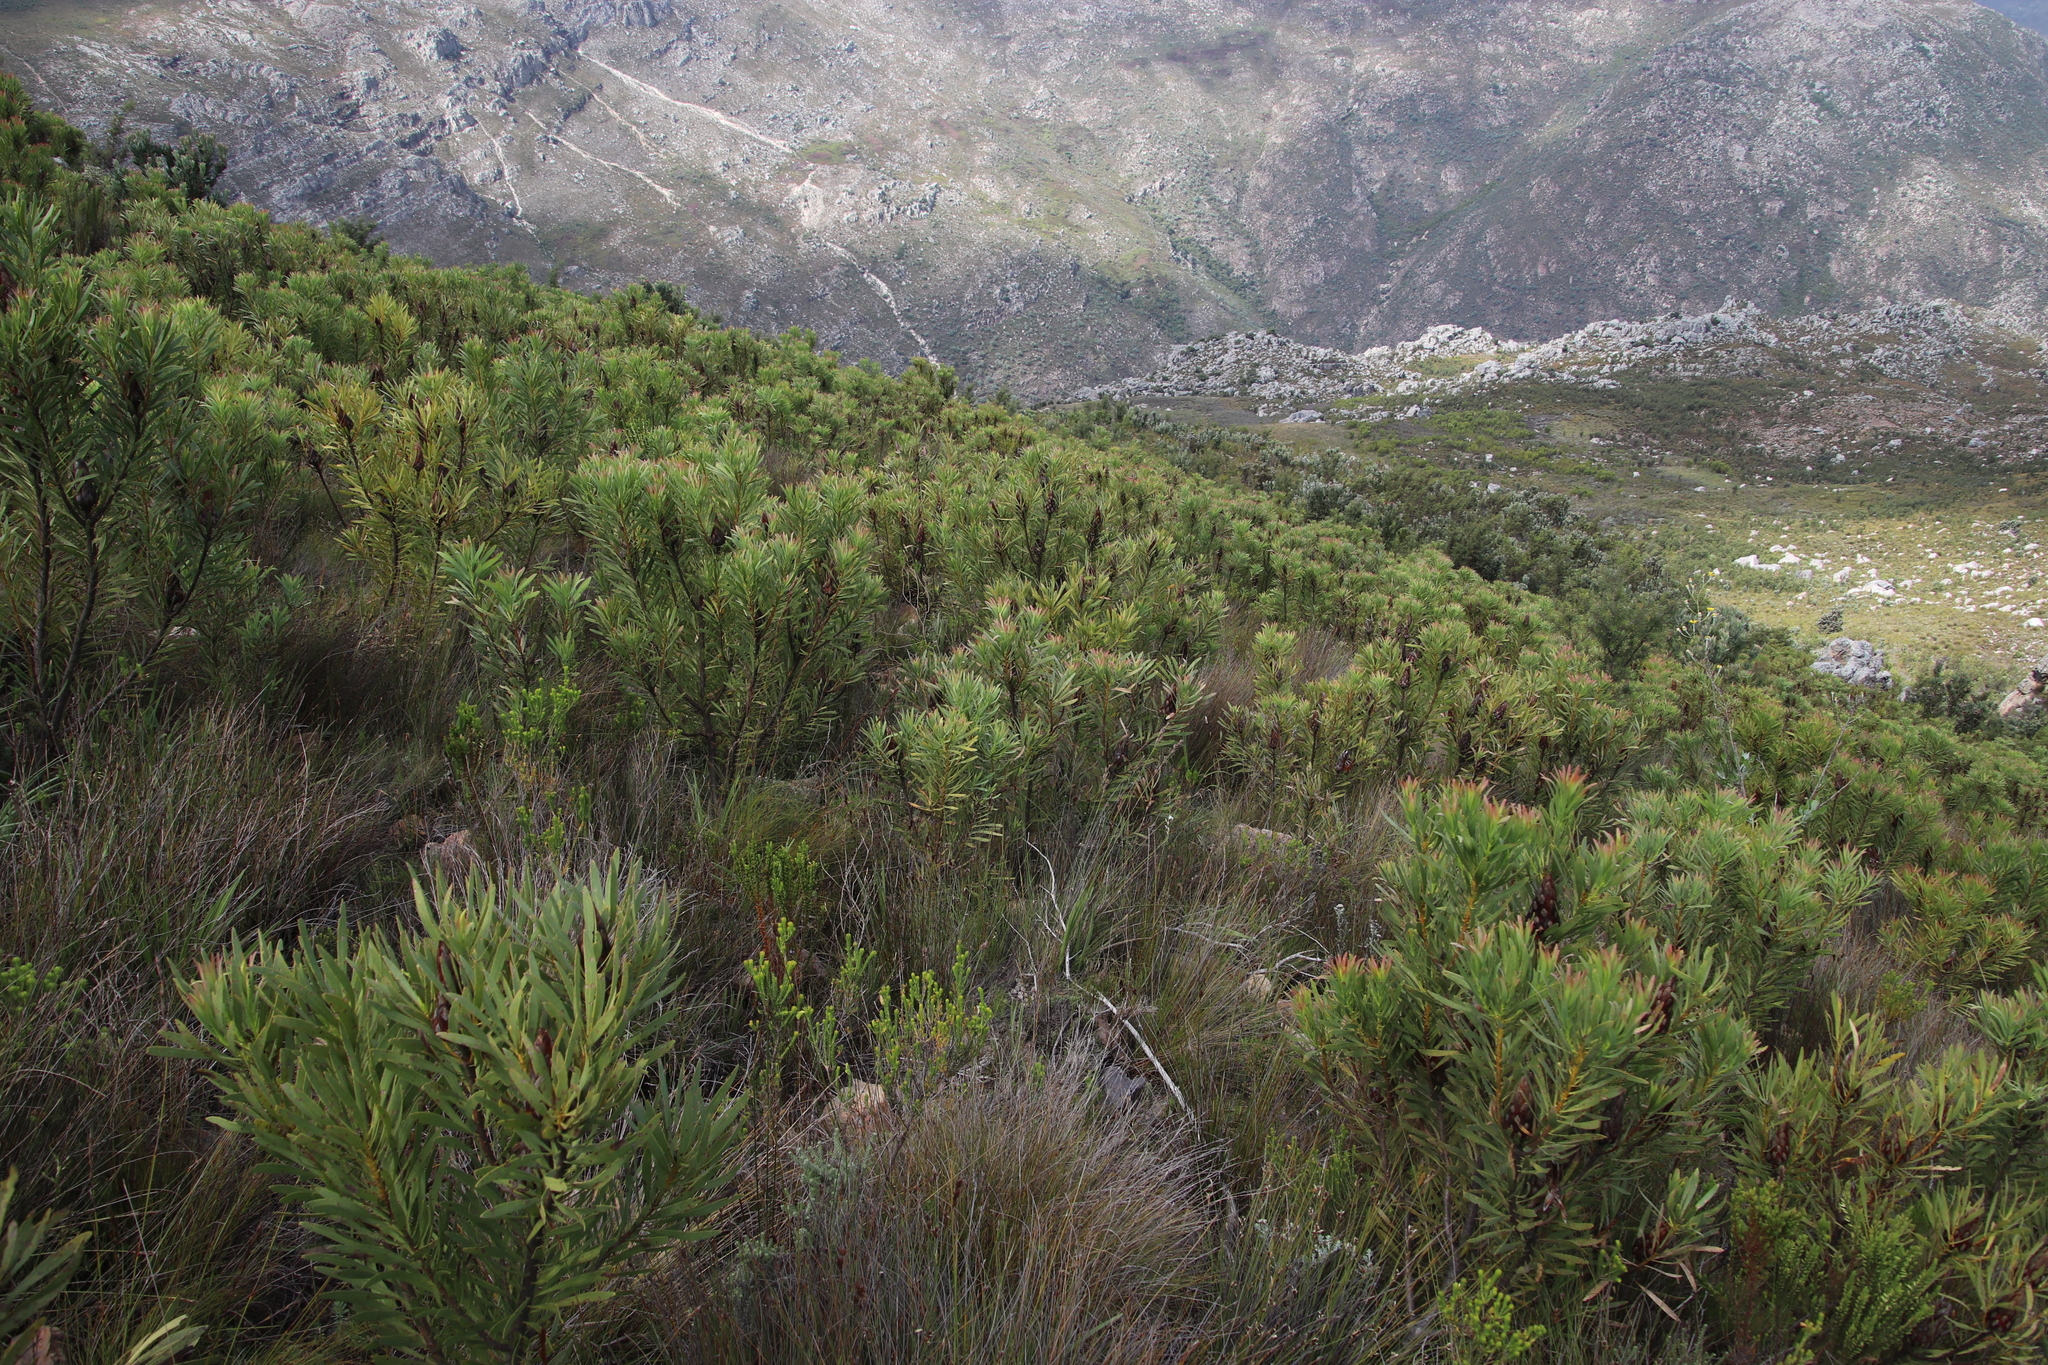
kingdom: Plantae
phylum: Tracheophyta
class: Magnoliopsida
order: Proteales
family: Proteaceae
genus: Protea
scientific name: Protea repens
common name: Sugarbush
